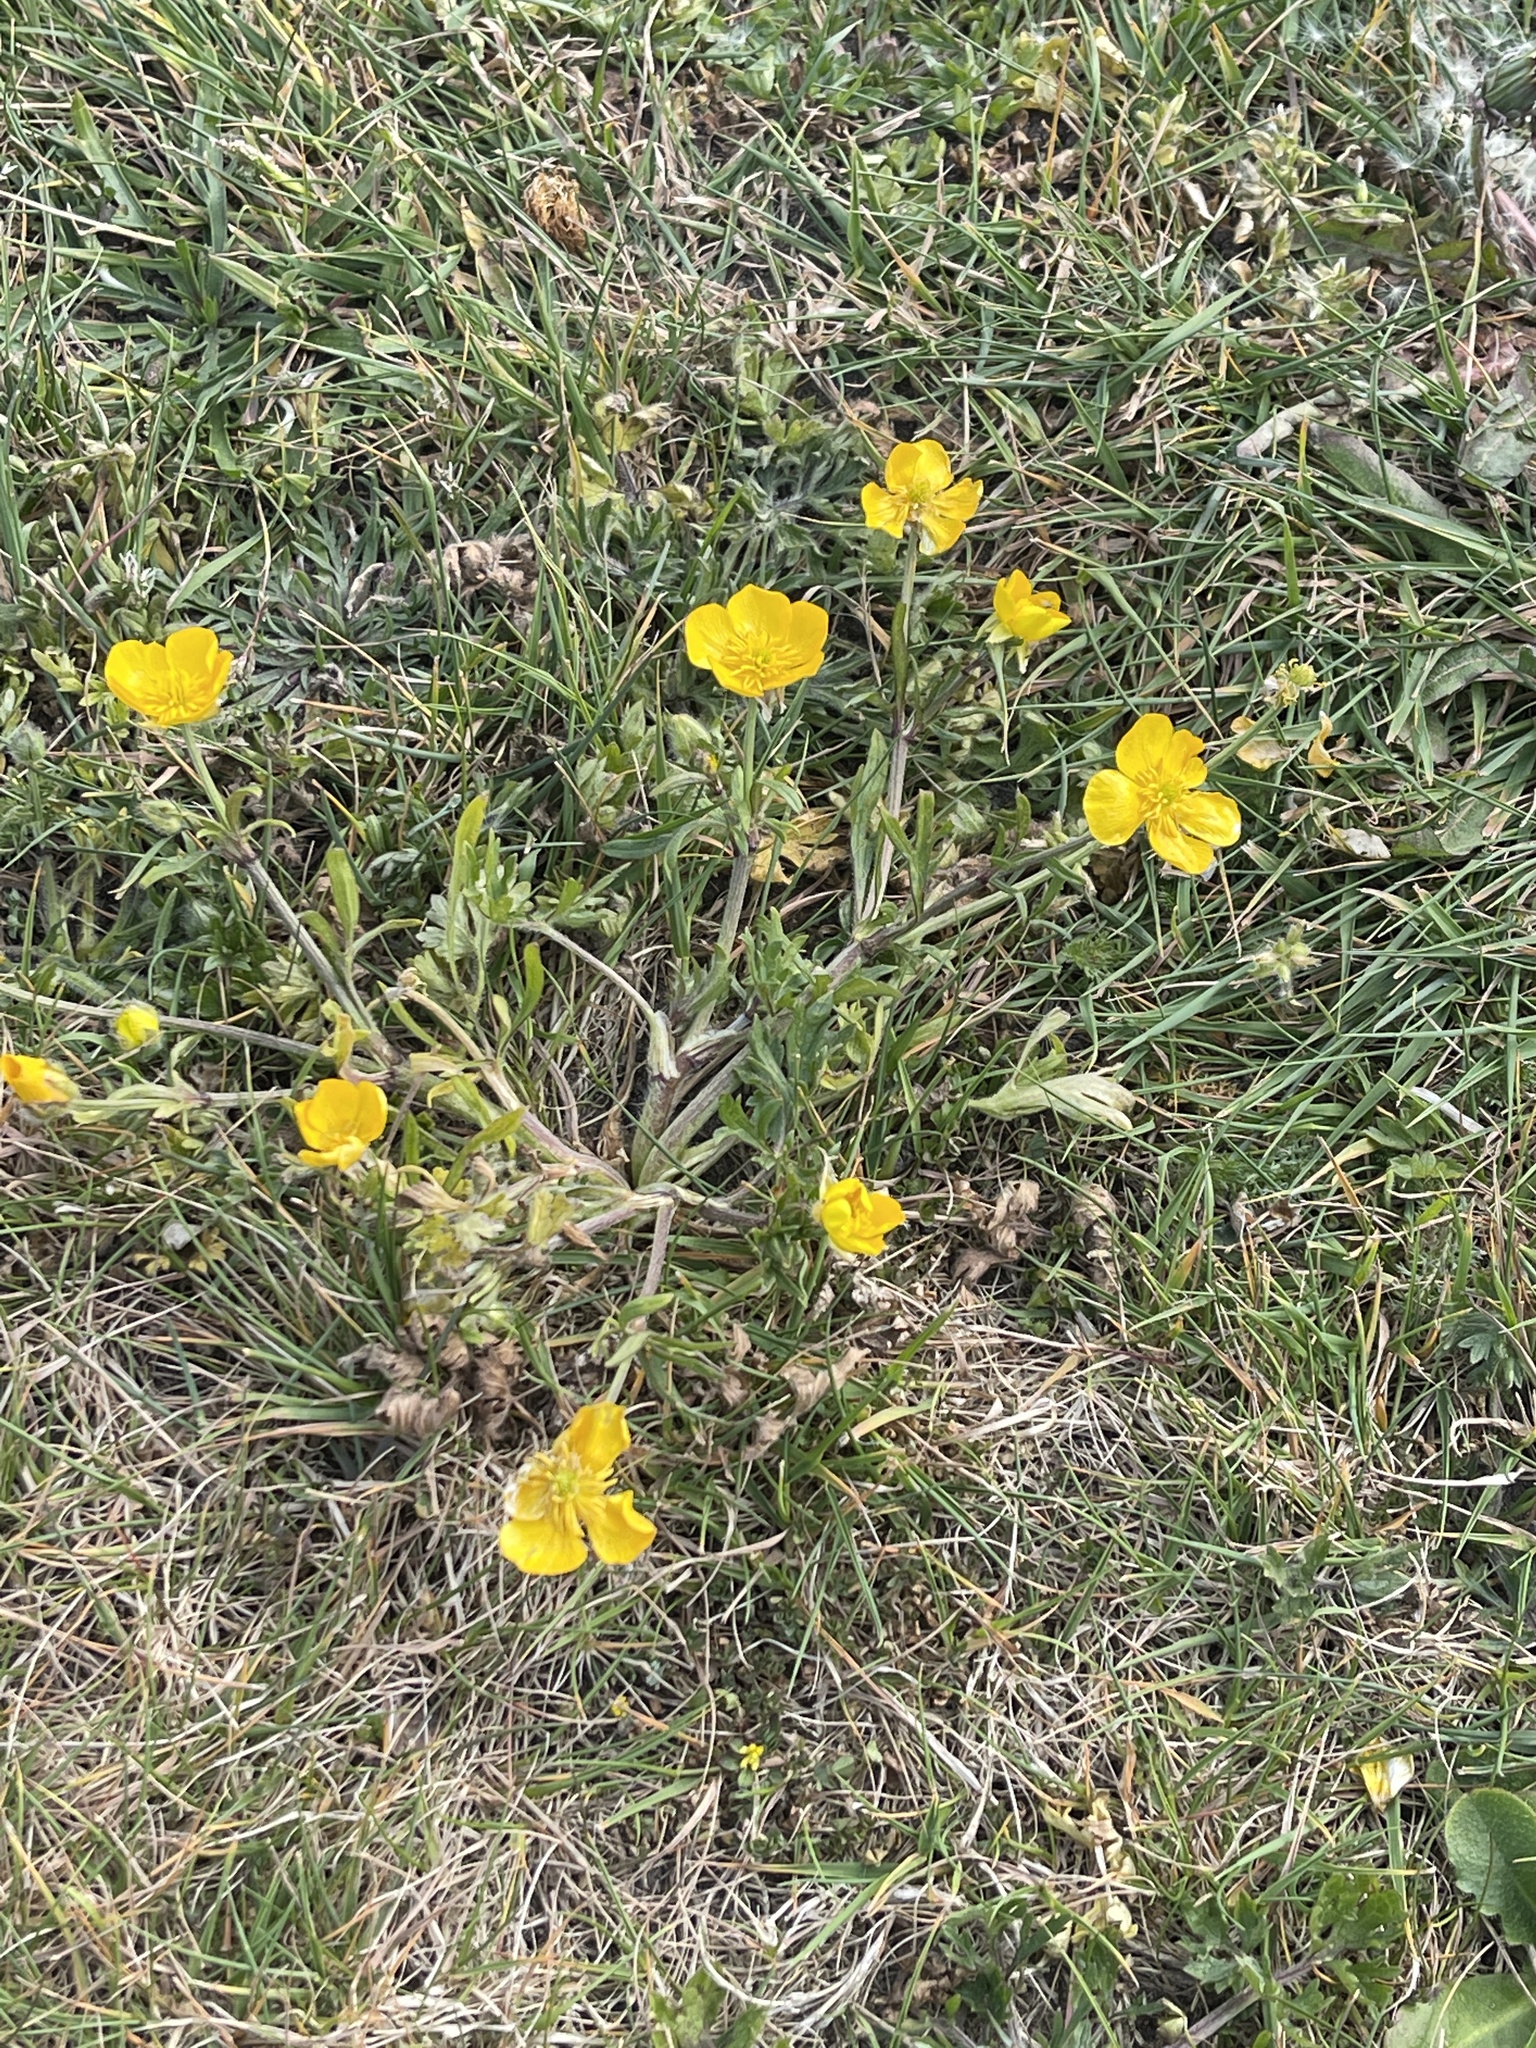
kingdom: Plantae
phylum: Tracheophyta
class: Magnoliopsida
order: Ranunculales
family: Ranunculaceae
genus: Ranunculus
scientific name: Ranunculus bulbosus
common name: Bulbous buttercup
